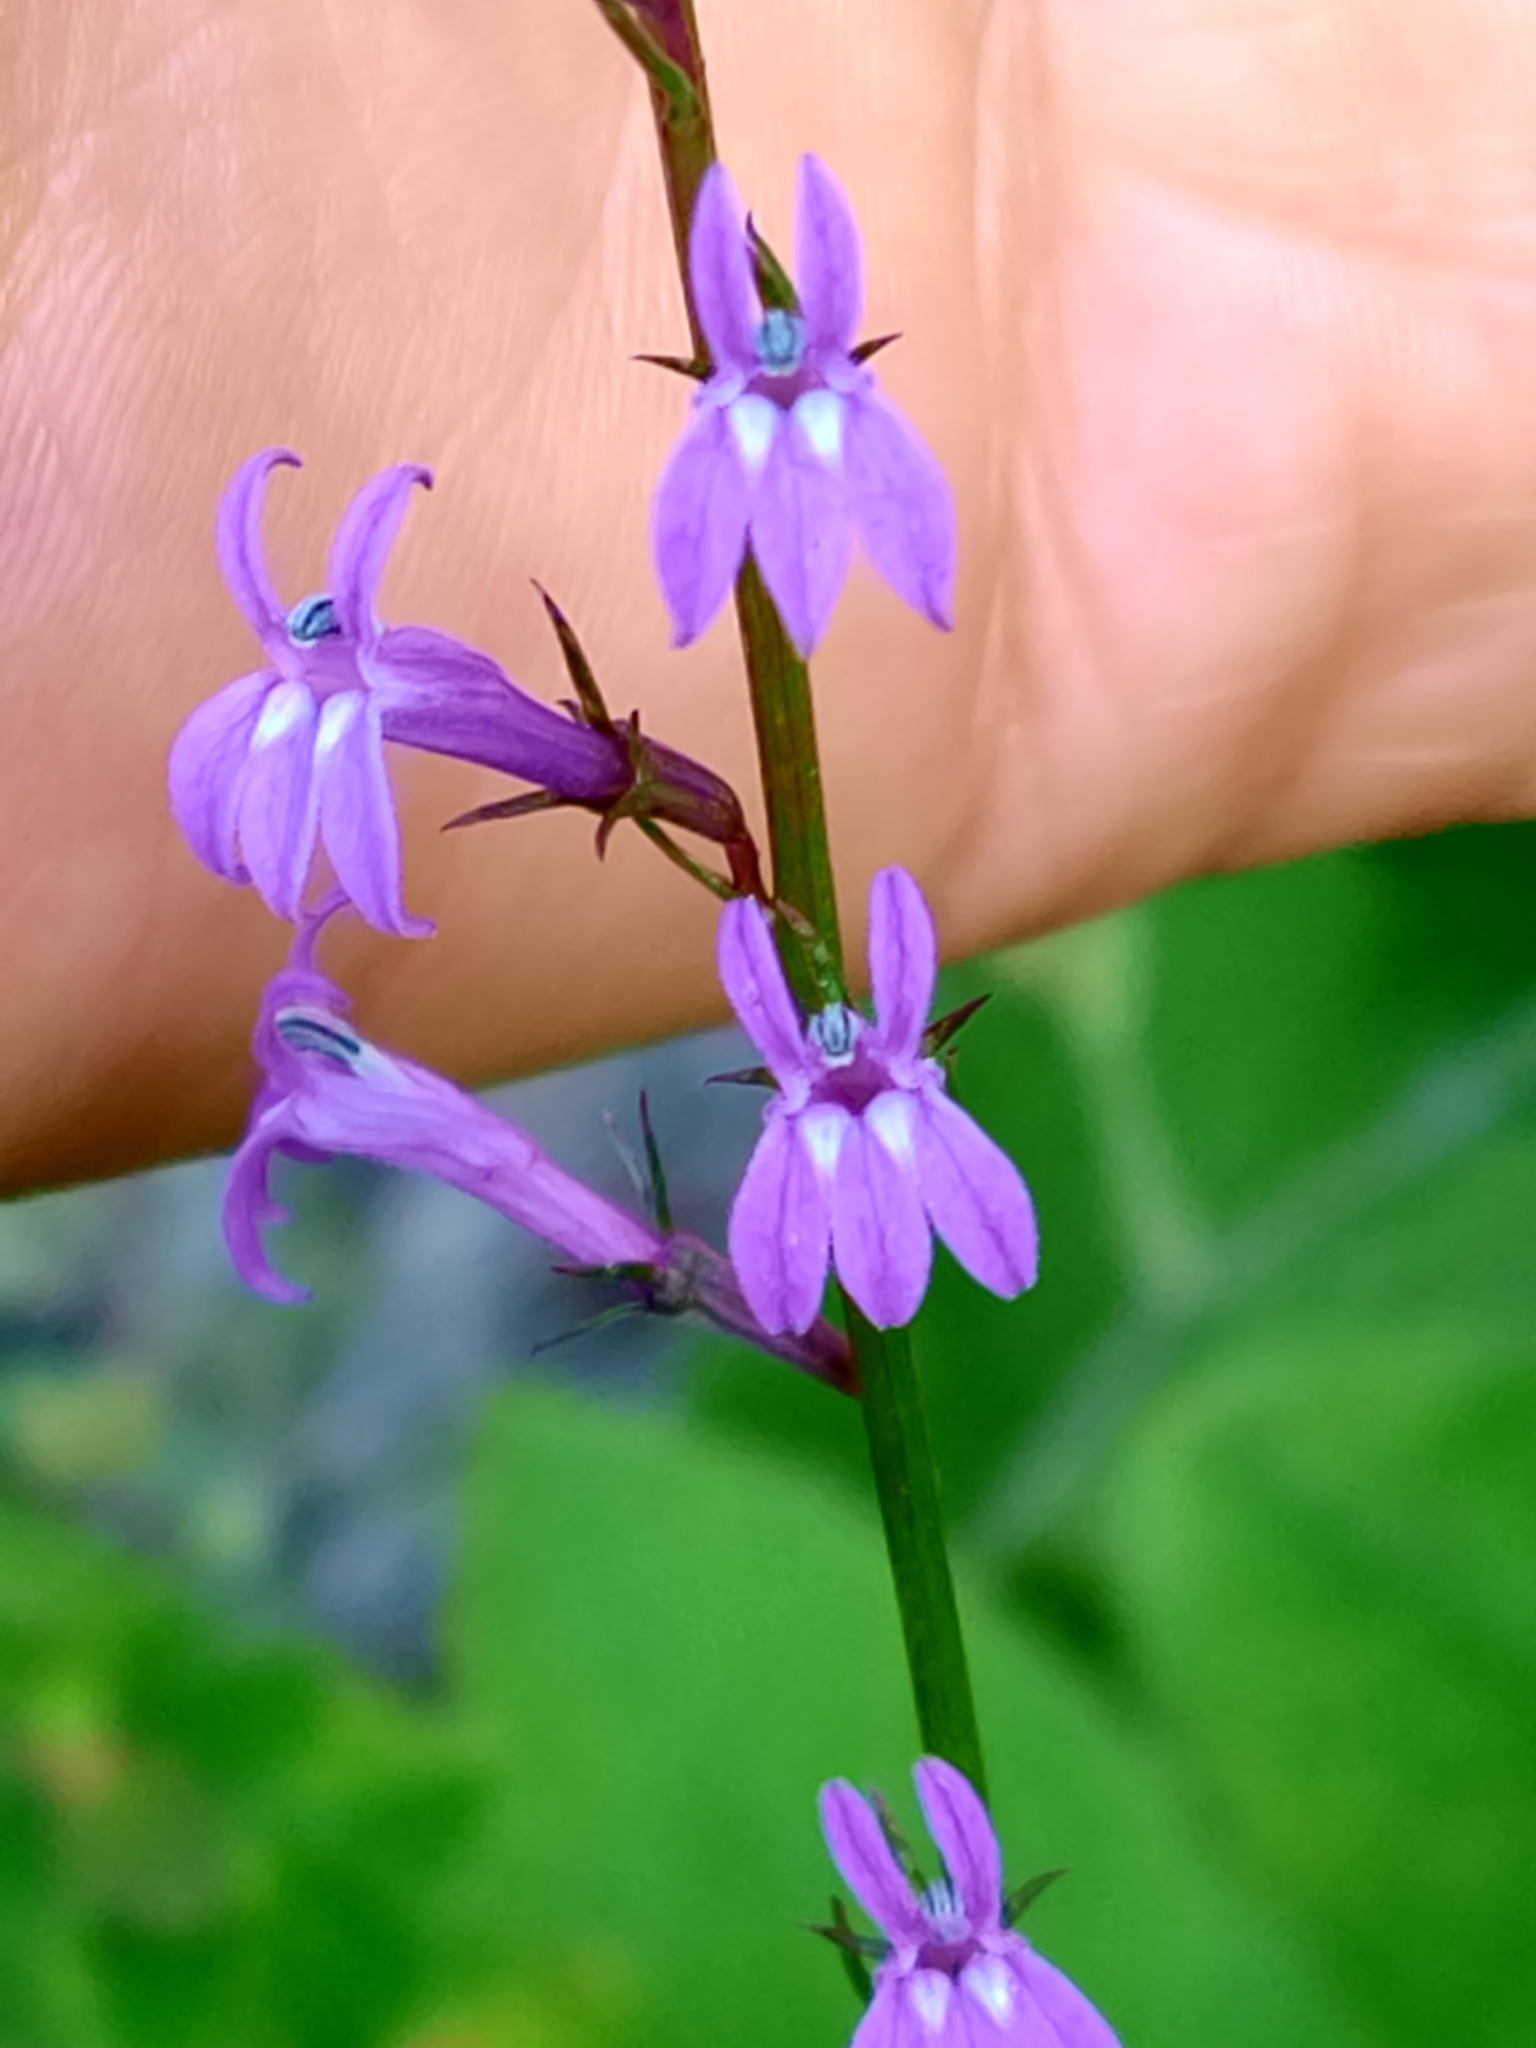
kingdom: Plantae
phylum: Tracheophyta
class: Magnoliopsida
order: Asterales
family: Campanulaceae
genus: Lobelia
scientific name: Lobelia urens
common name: Heath lobelia
